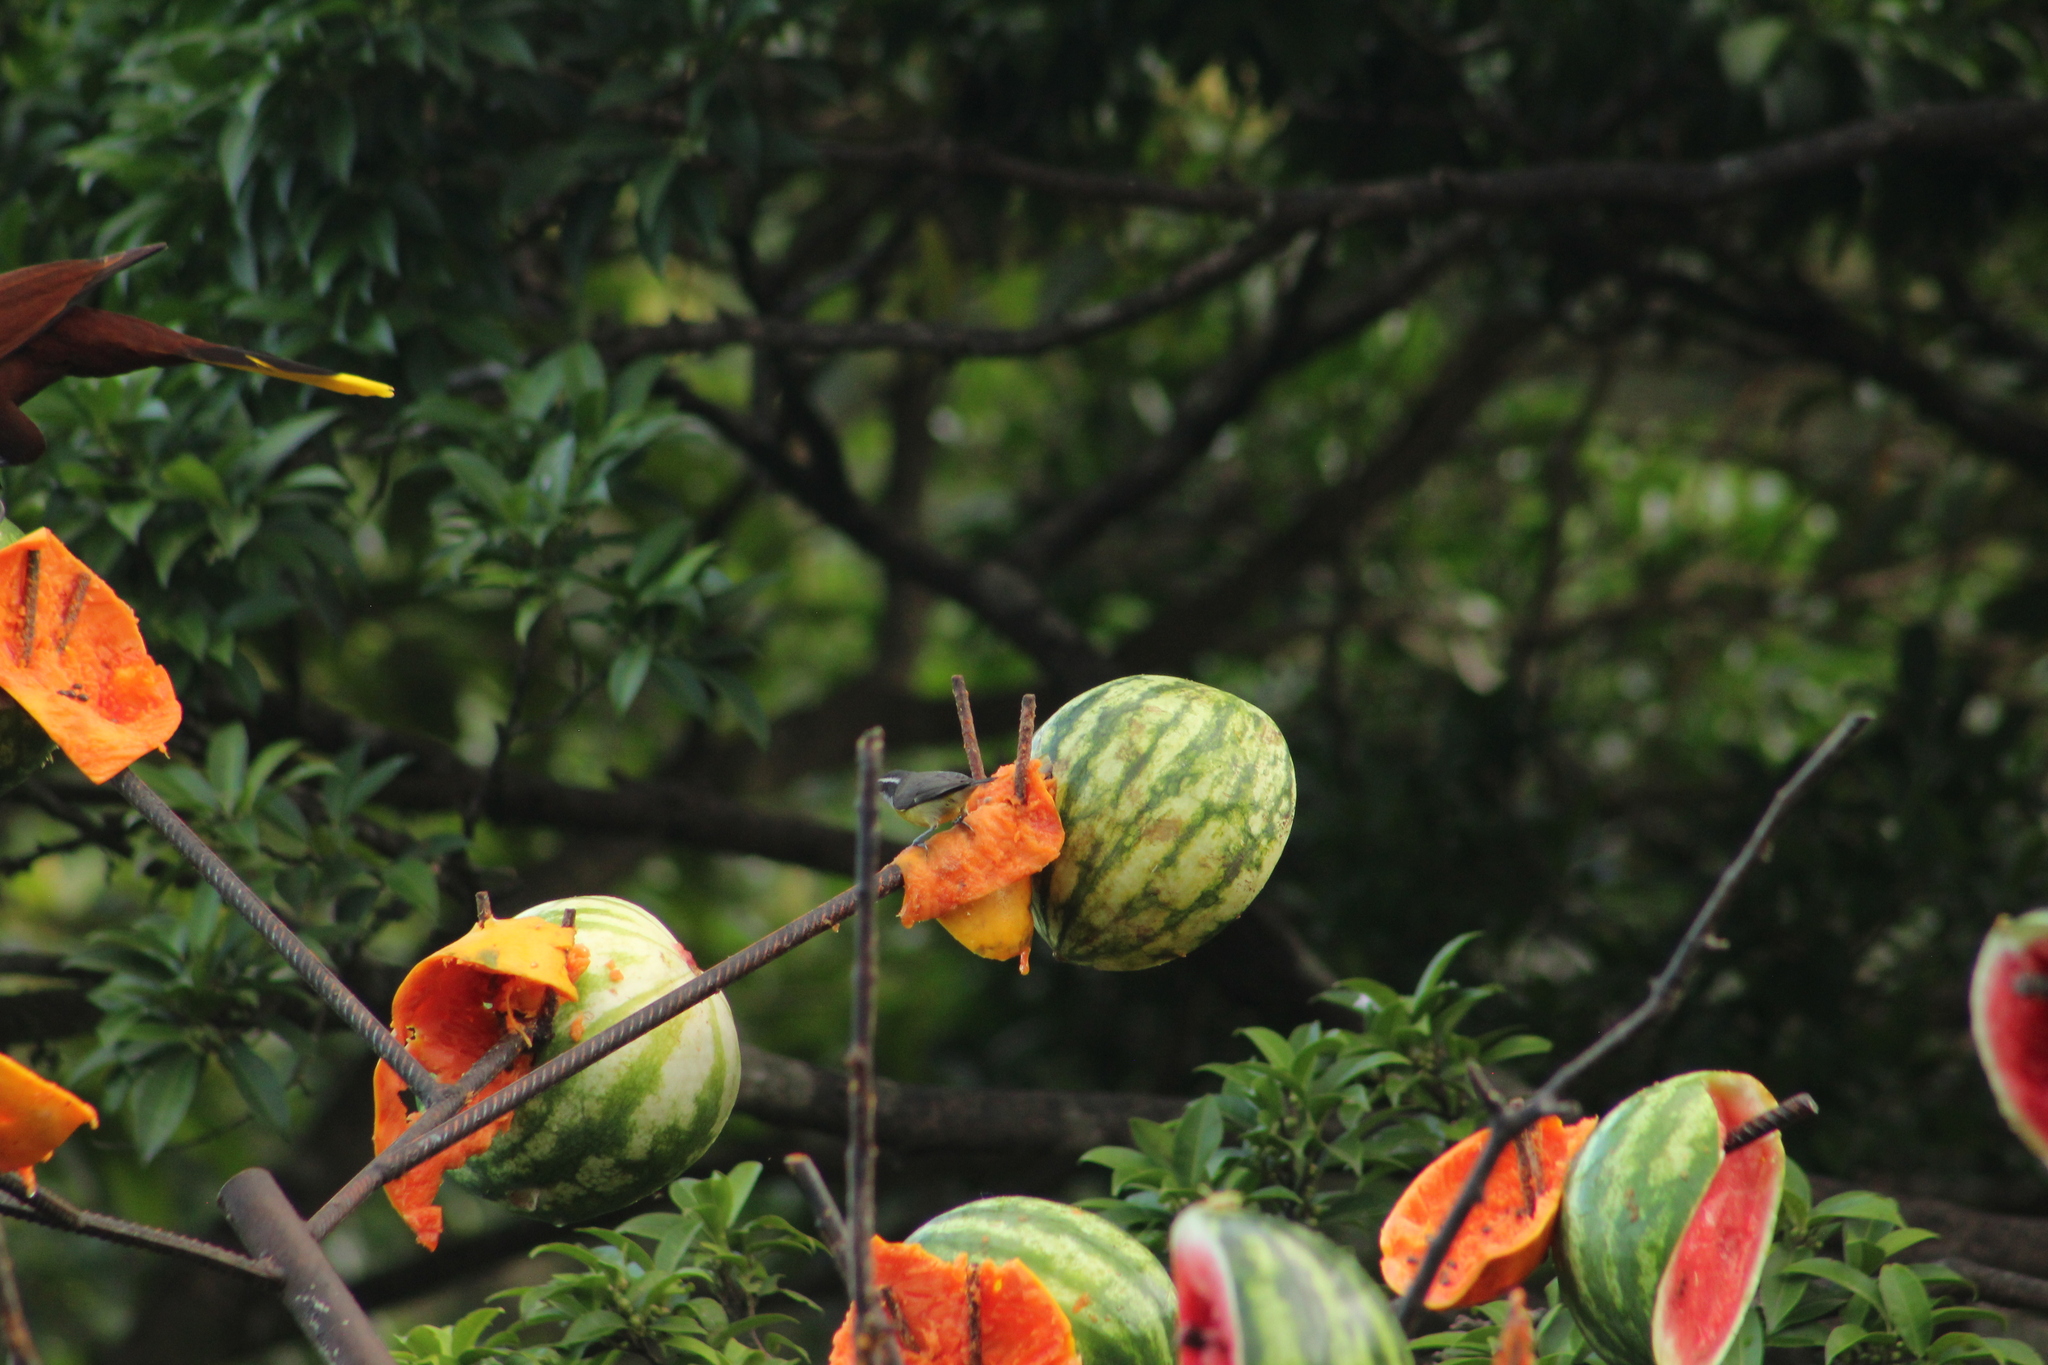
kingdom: Animalia
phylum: Chordata
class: Aves
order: Passeriformes
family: Thraupidae
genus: Coereba
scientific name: Coereba flaveola
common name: Bananaquit
